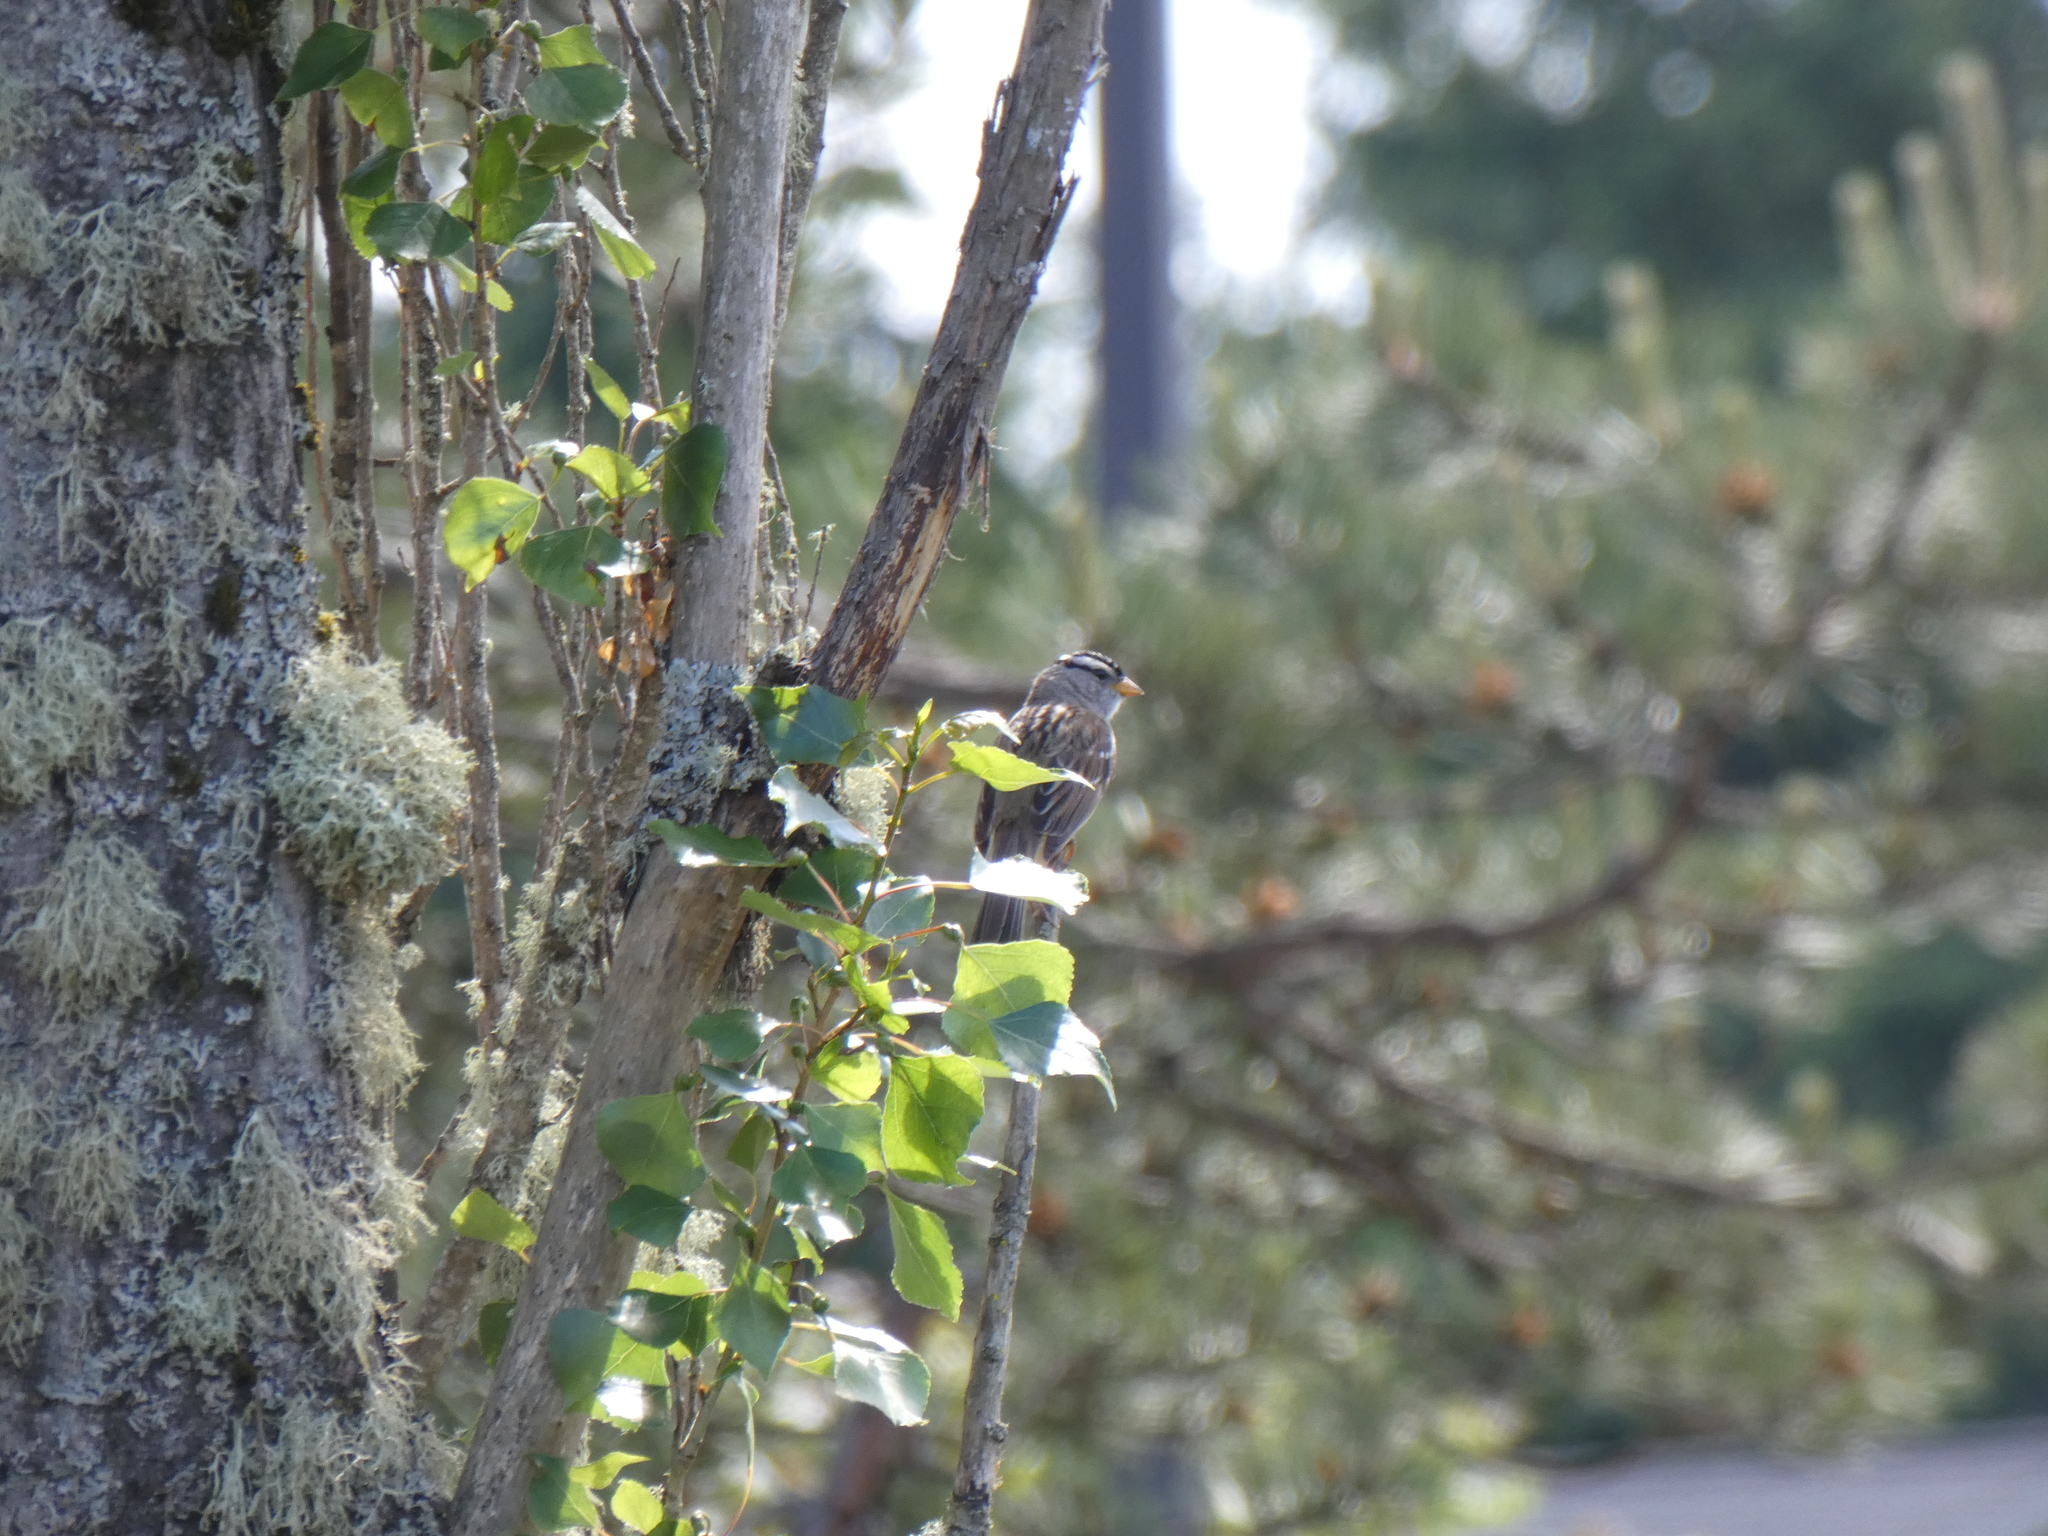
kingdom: Animalia
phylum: Chordata
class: Aves
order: Passeriformes
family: Passerellidae
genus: Zonotrichia
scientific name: Zonotrichia leucophrys
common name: White-crowned sparrow
